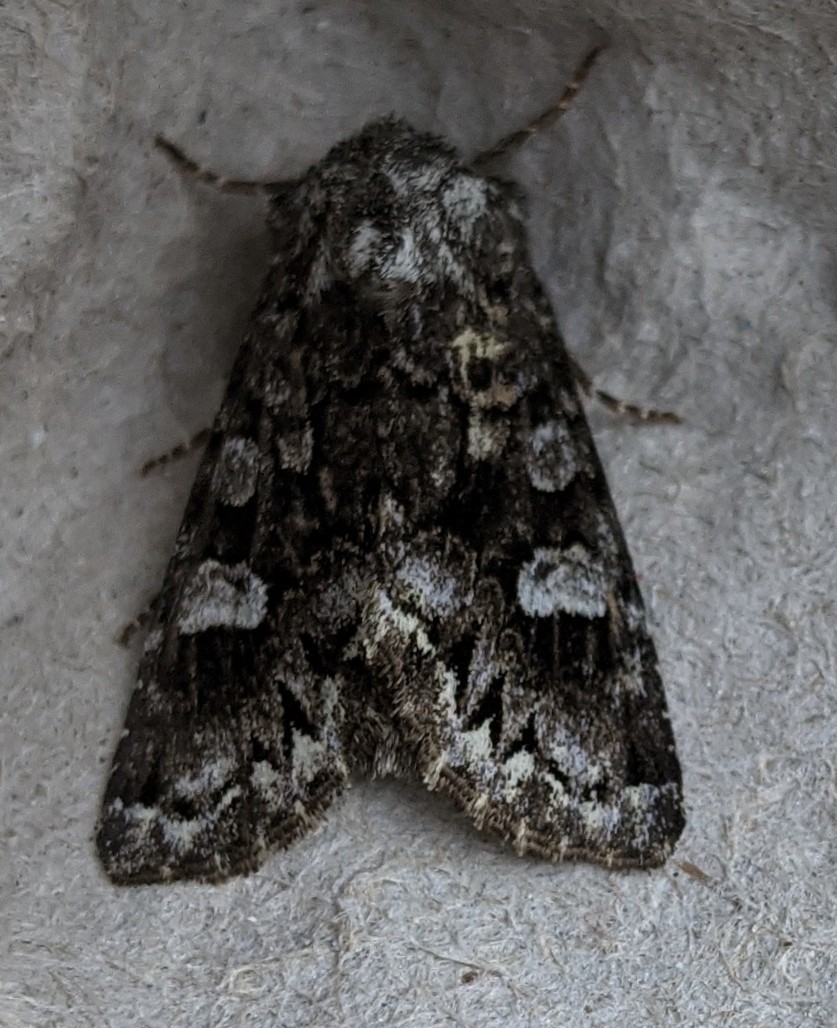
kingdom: Animalia
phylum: Arthropoda
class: Insecta
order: Lepidoptera
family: Noctuidae
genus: Melanchra
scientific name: Melanchra adjuncta
